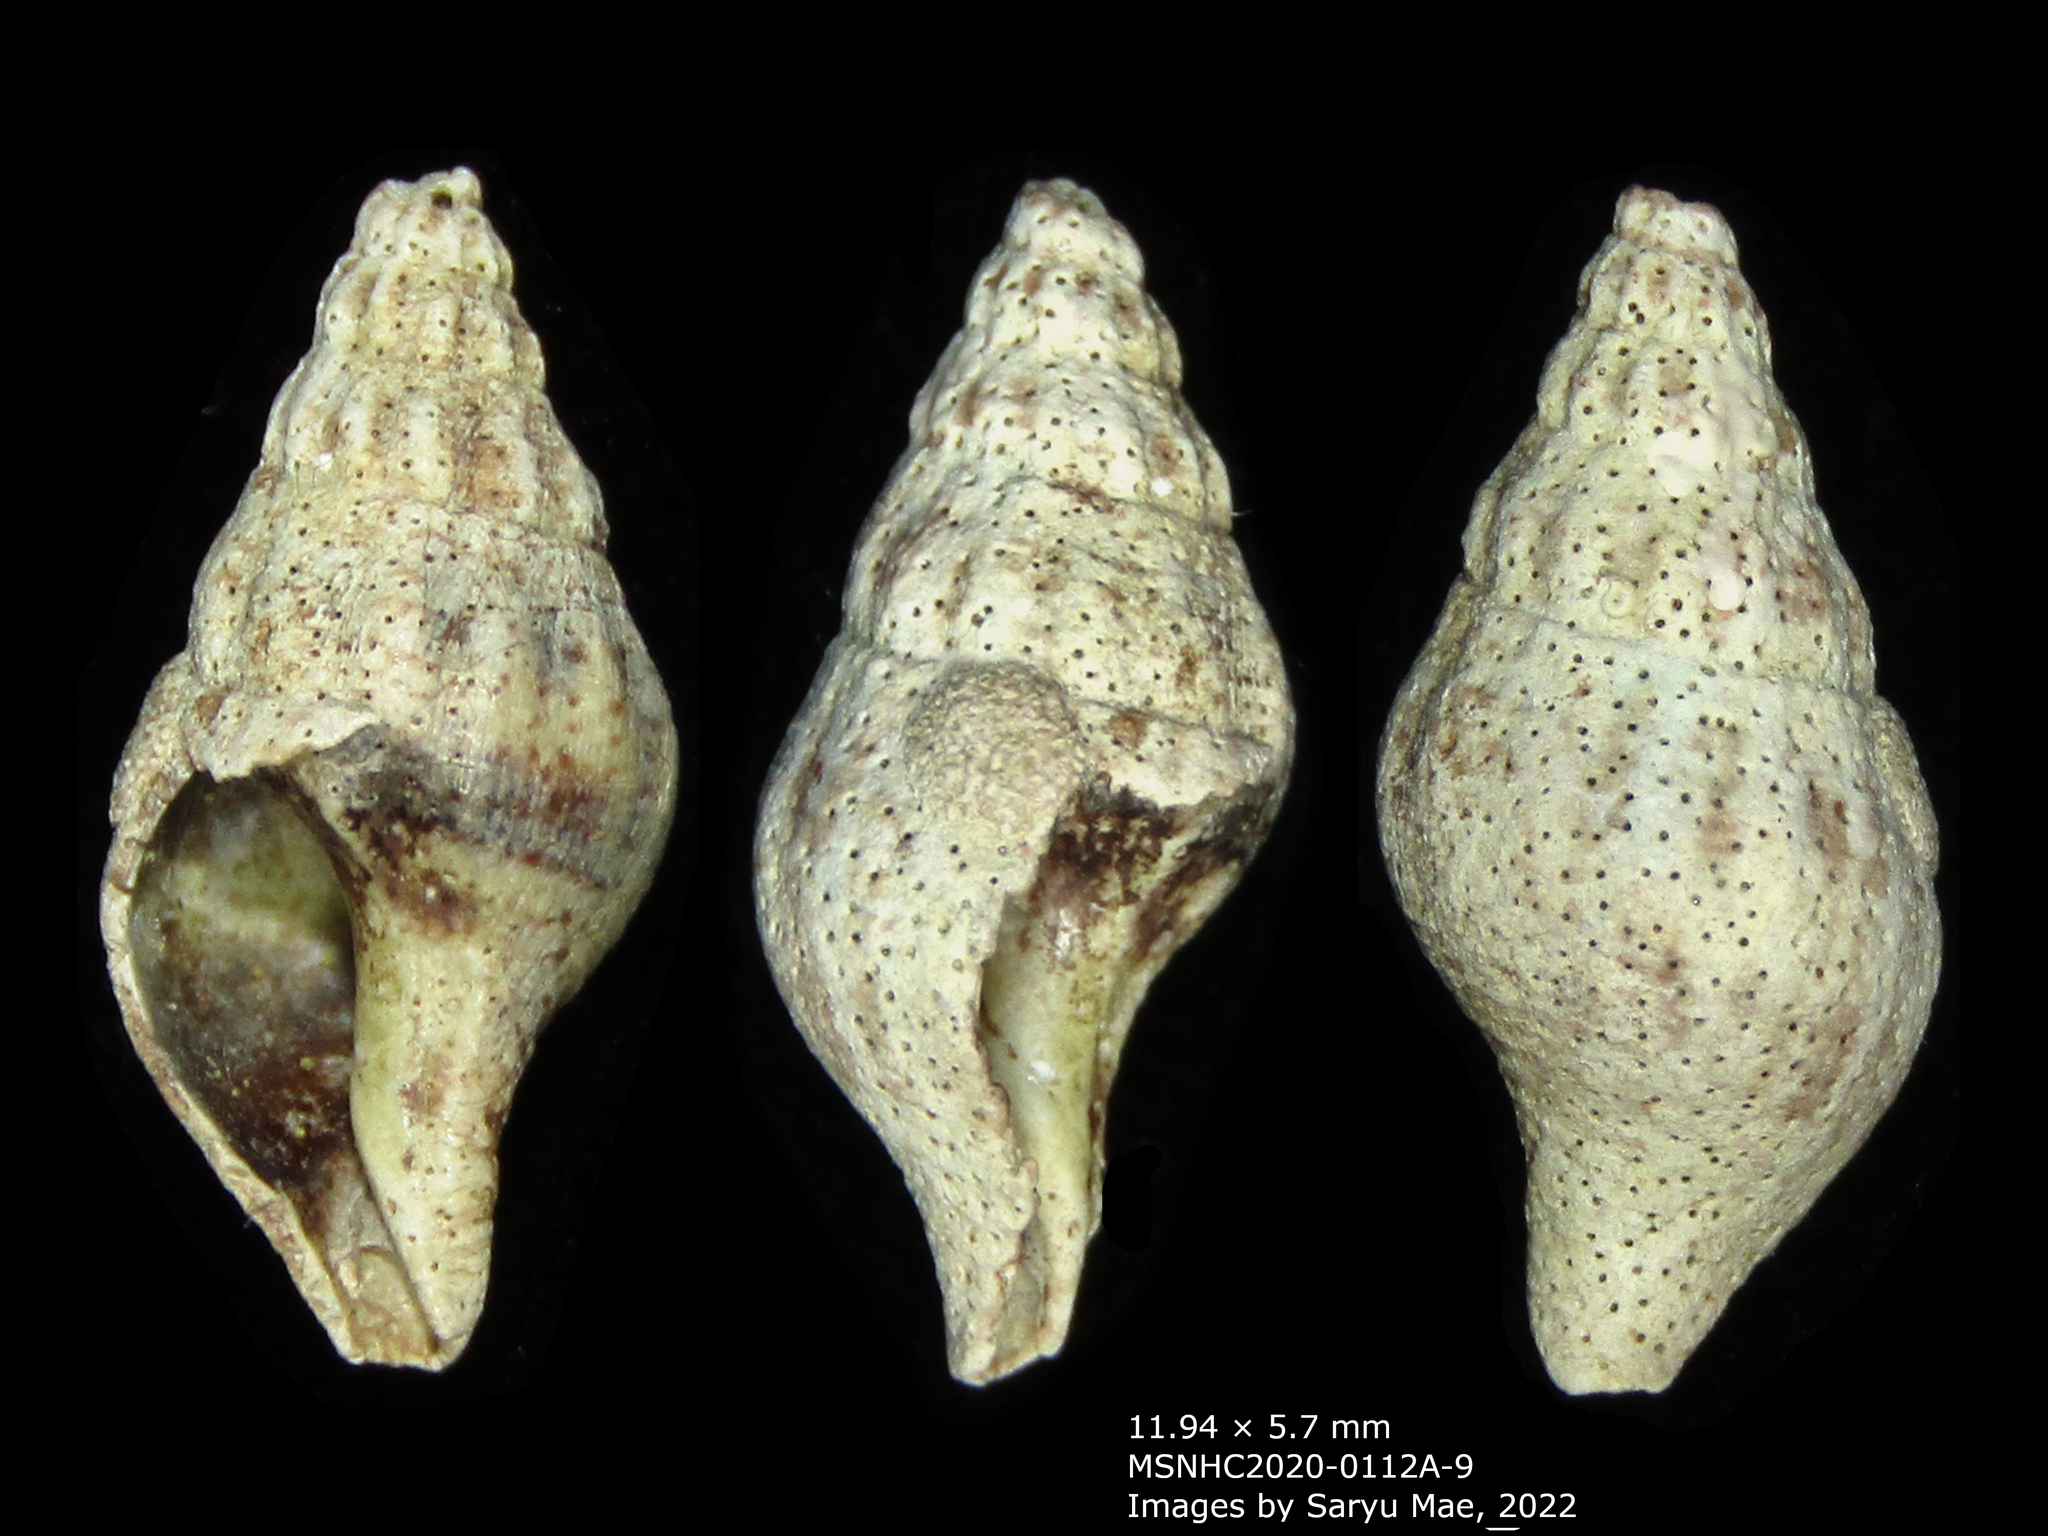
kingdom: Animalia
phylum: Mollusca
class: Gastropoda
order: Neogastropoda
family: Tudiclidae
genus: Buccinulum
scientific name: Buccinulum vittatum
